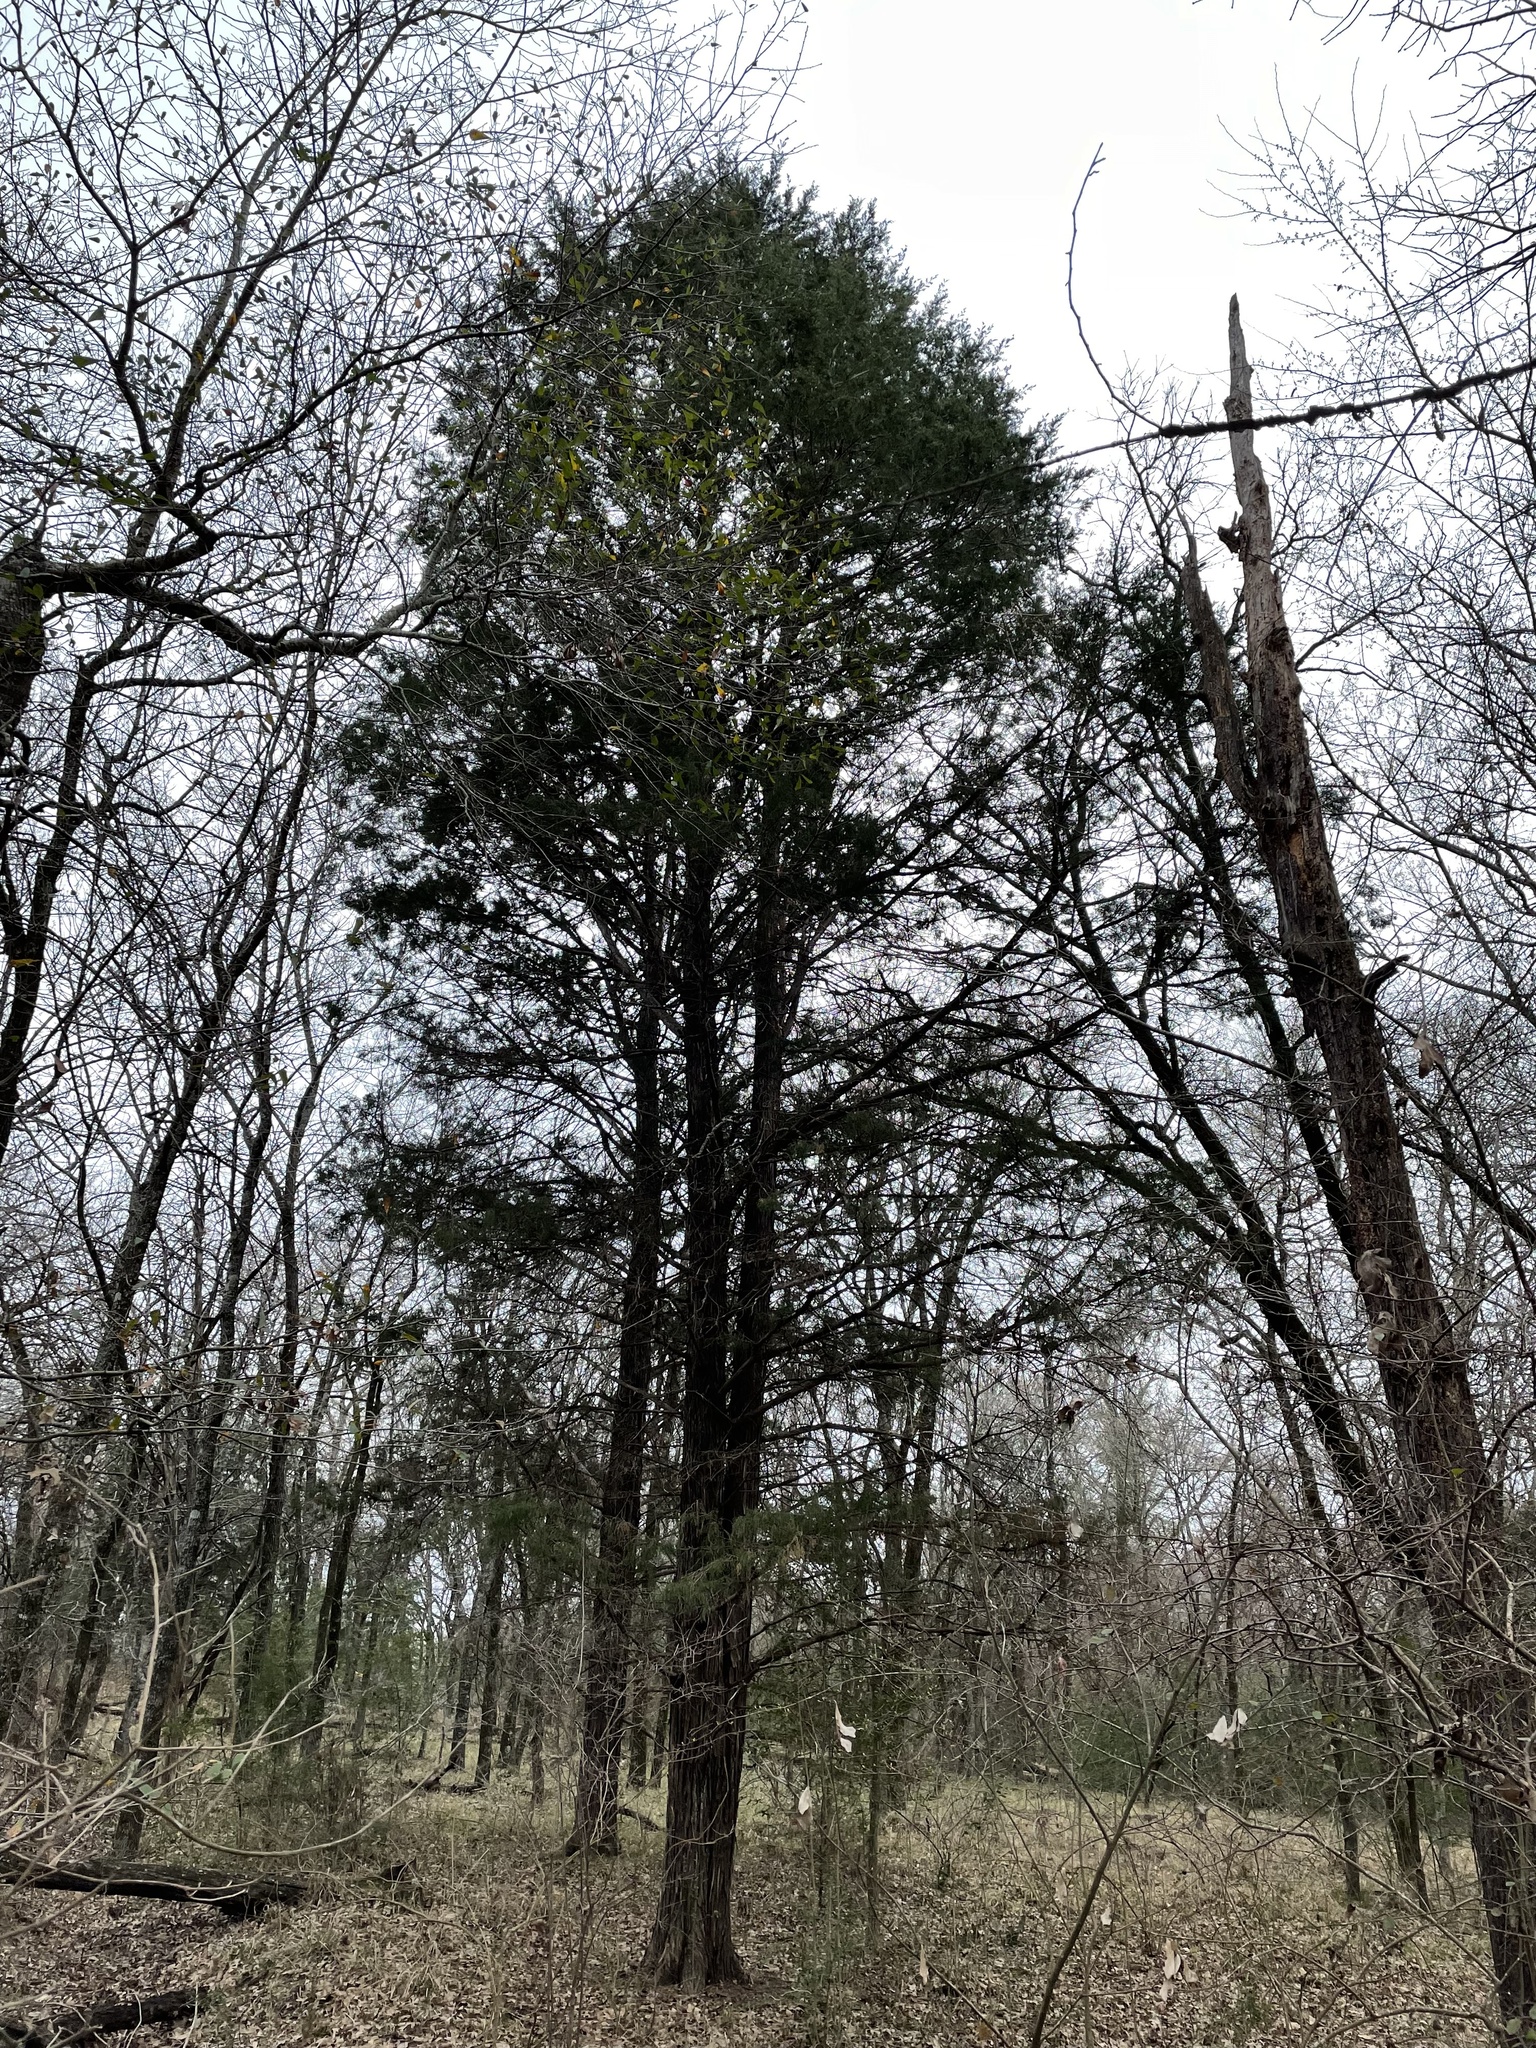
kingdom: Plantae
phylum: Tracheophyta
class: Pinopsida
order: Pinales
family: Cupressaceae
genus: Juniperus
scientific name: Juniperus virginiana
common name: Red juniper
